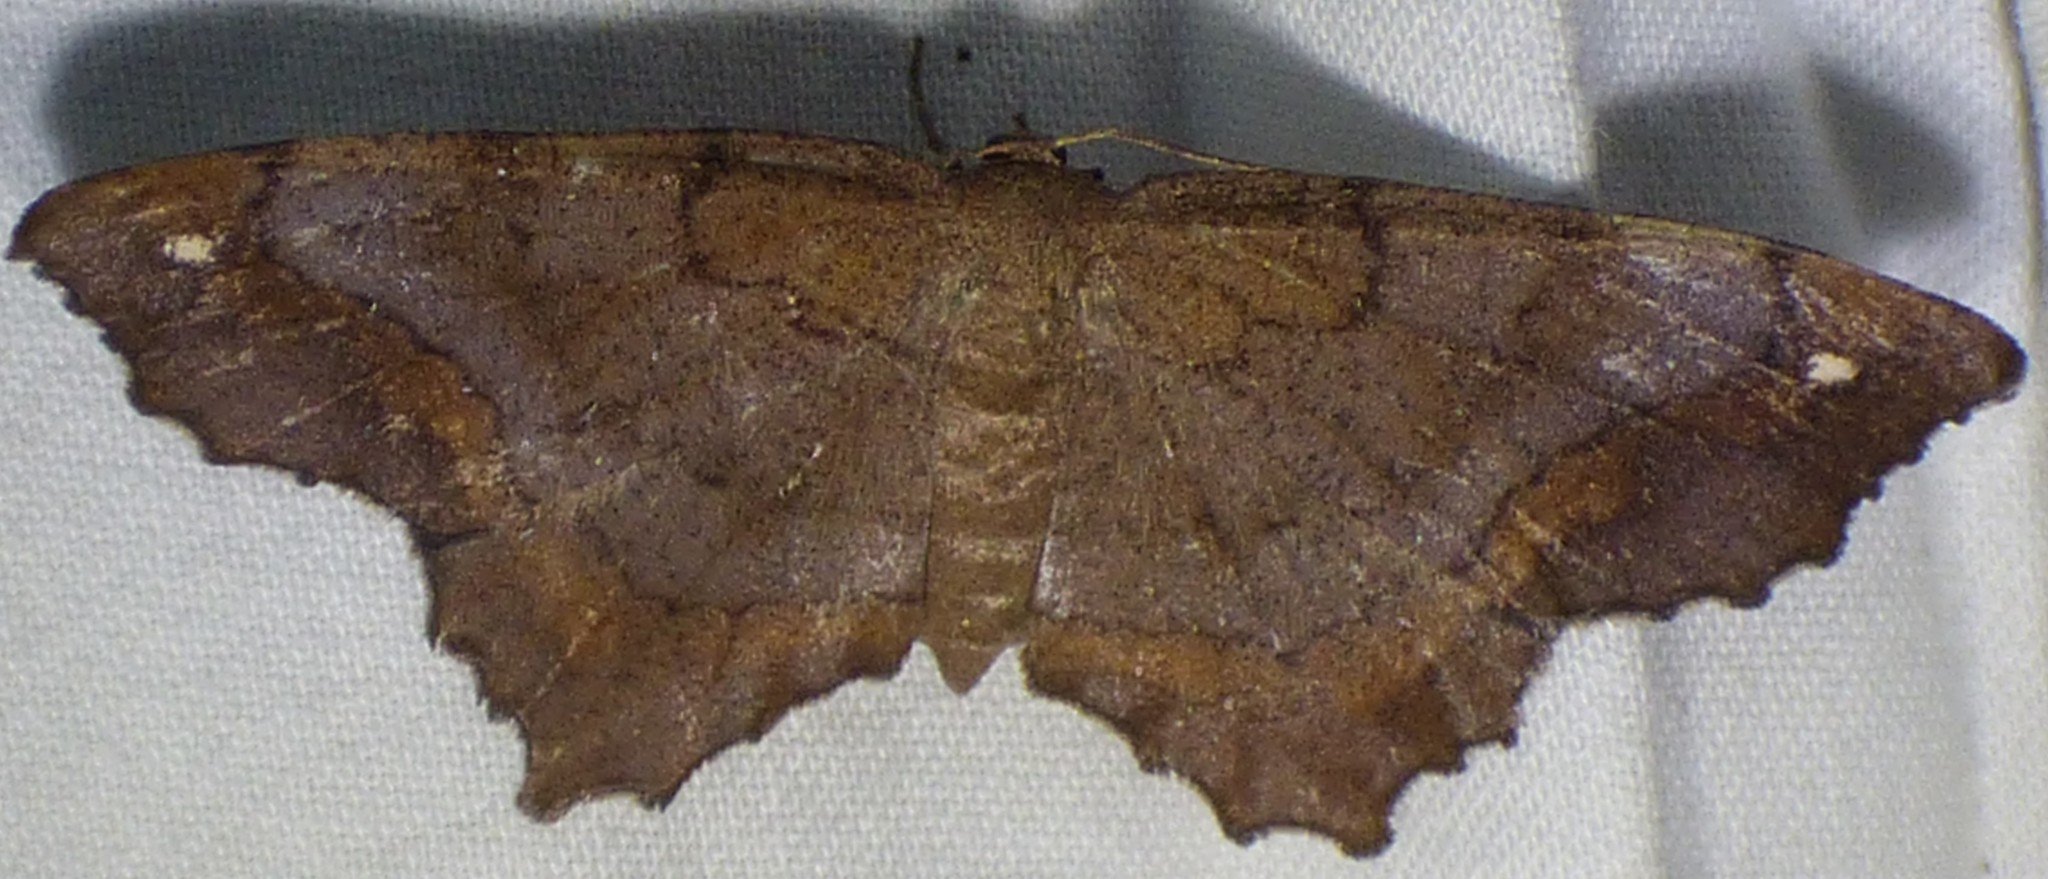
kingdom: Animalia
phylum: Arthropoda
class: Insecta
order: Lepidoptera
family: Geometridae
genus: Hypagyrtis
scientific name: Hypagyrtis esther
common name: Esther moth
